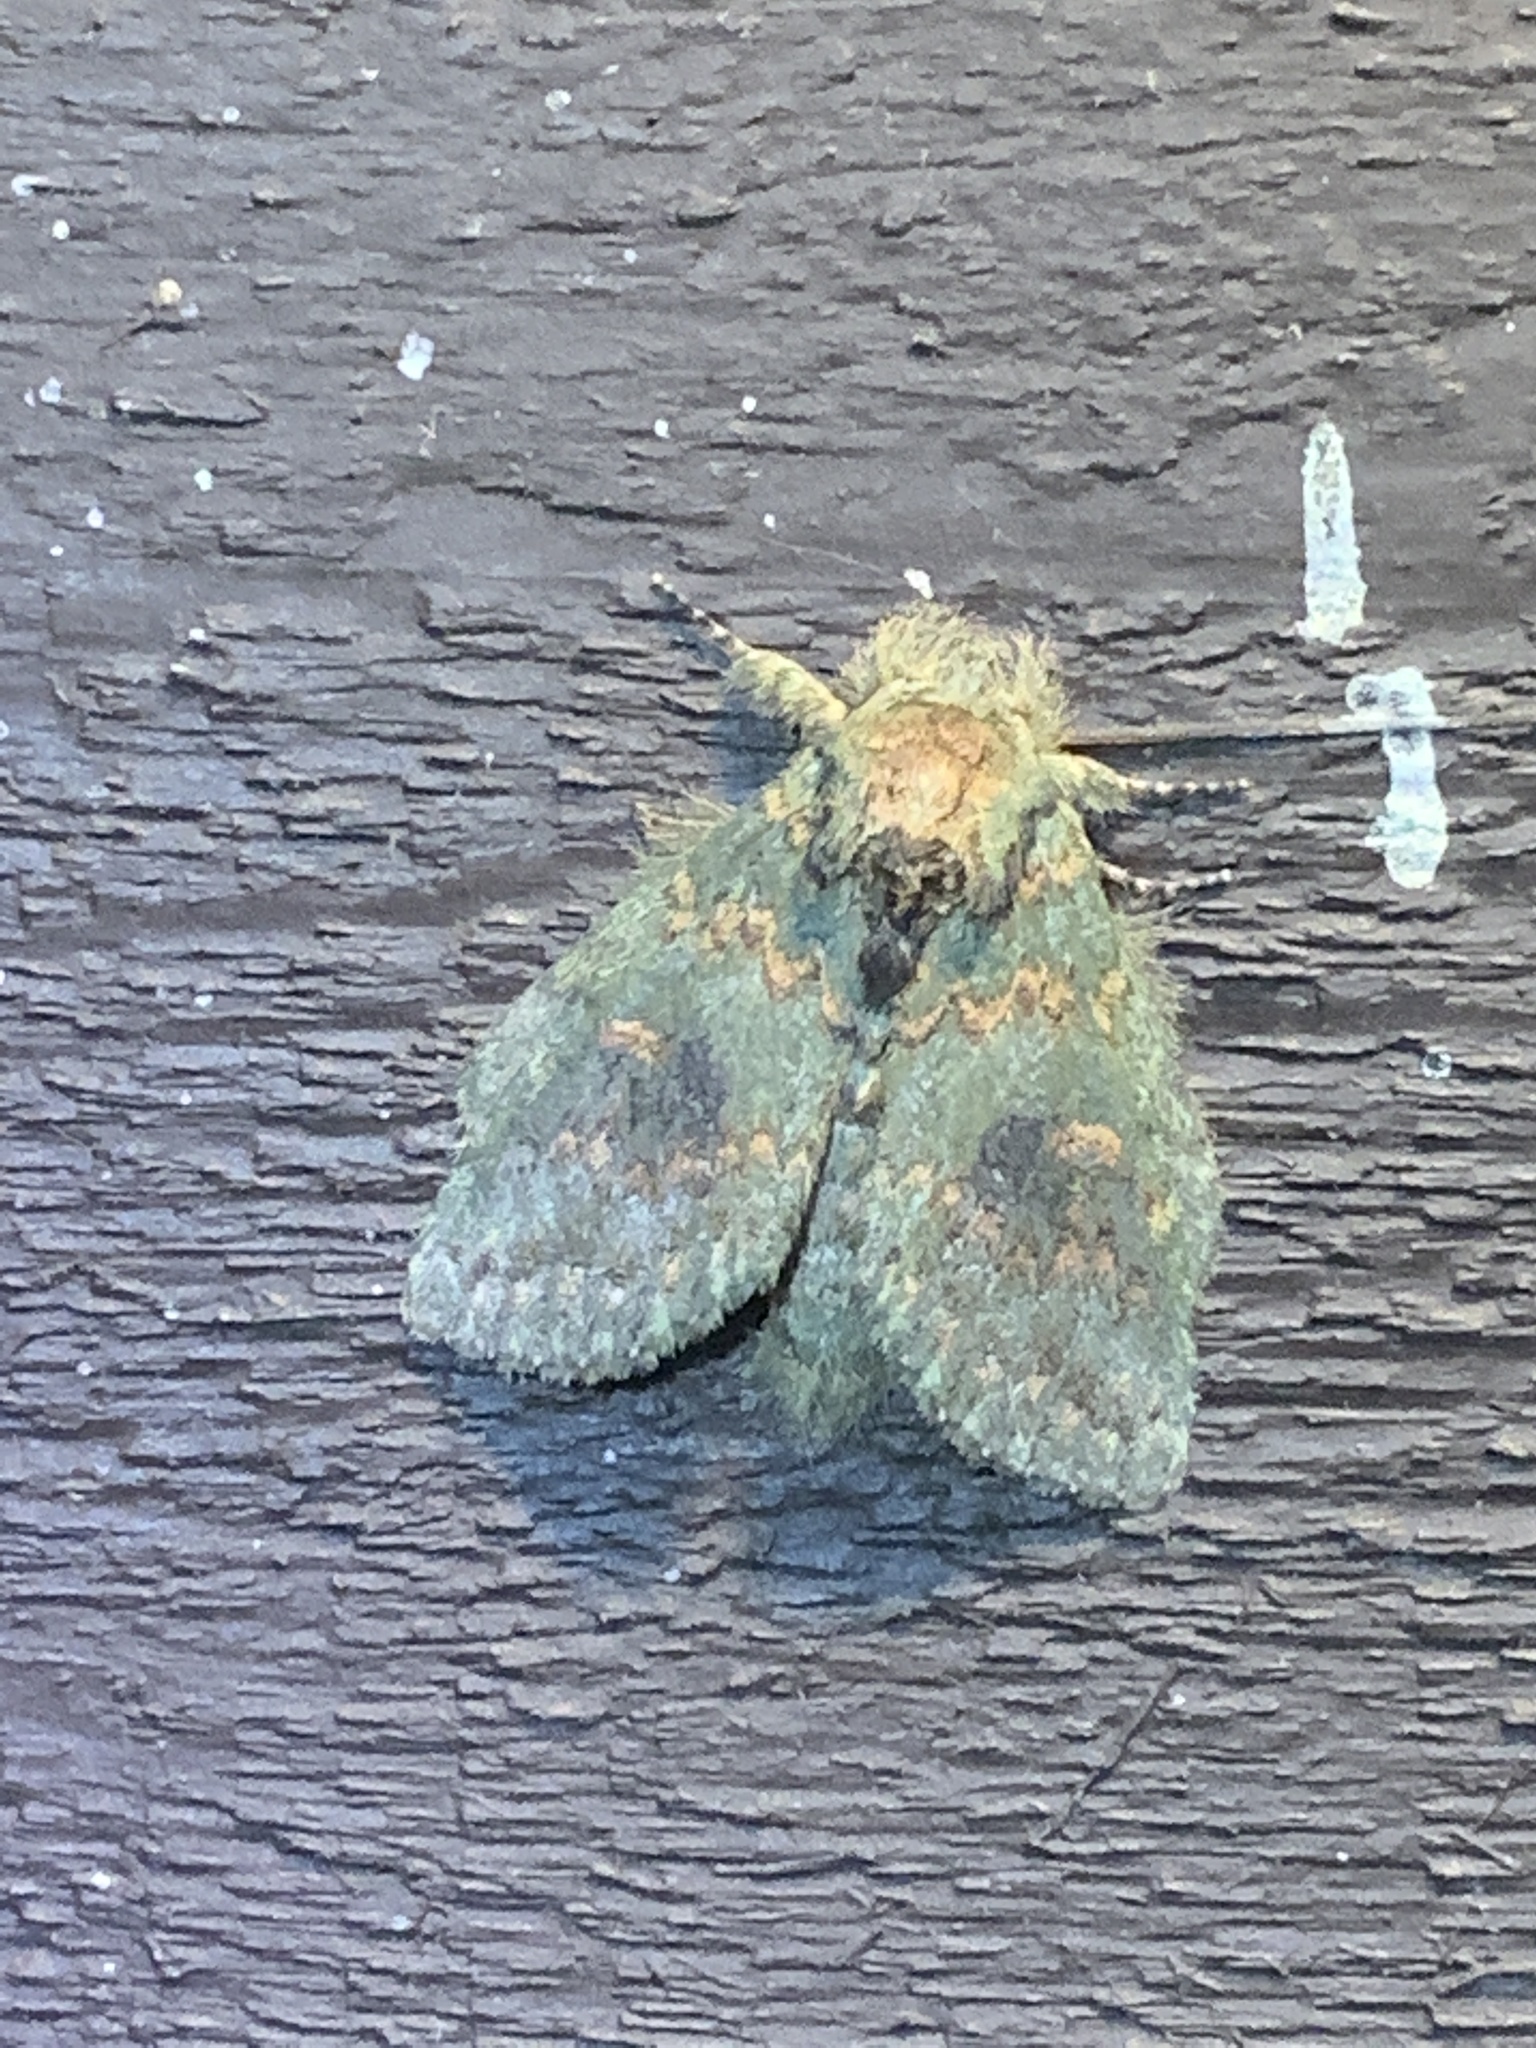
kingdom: Animalia
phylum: Arthropoda
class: Insecta
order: Lepidoptera
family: Notodontidae
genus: Disphragis
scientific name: Disphragis Cecrita biundata
